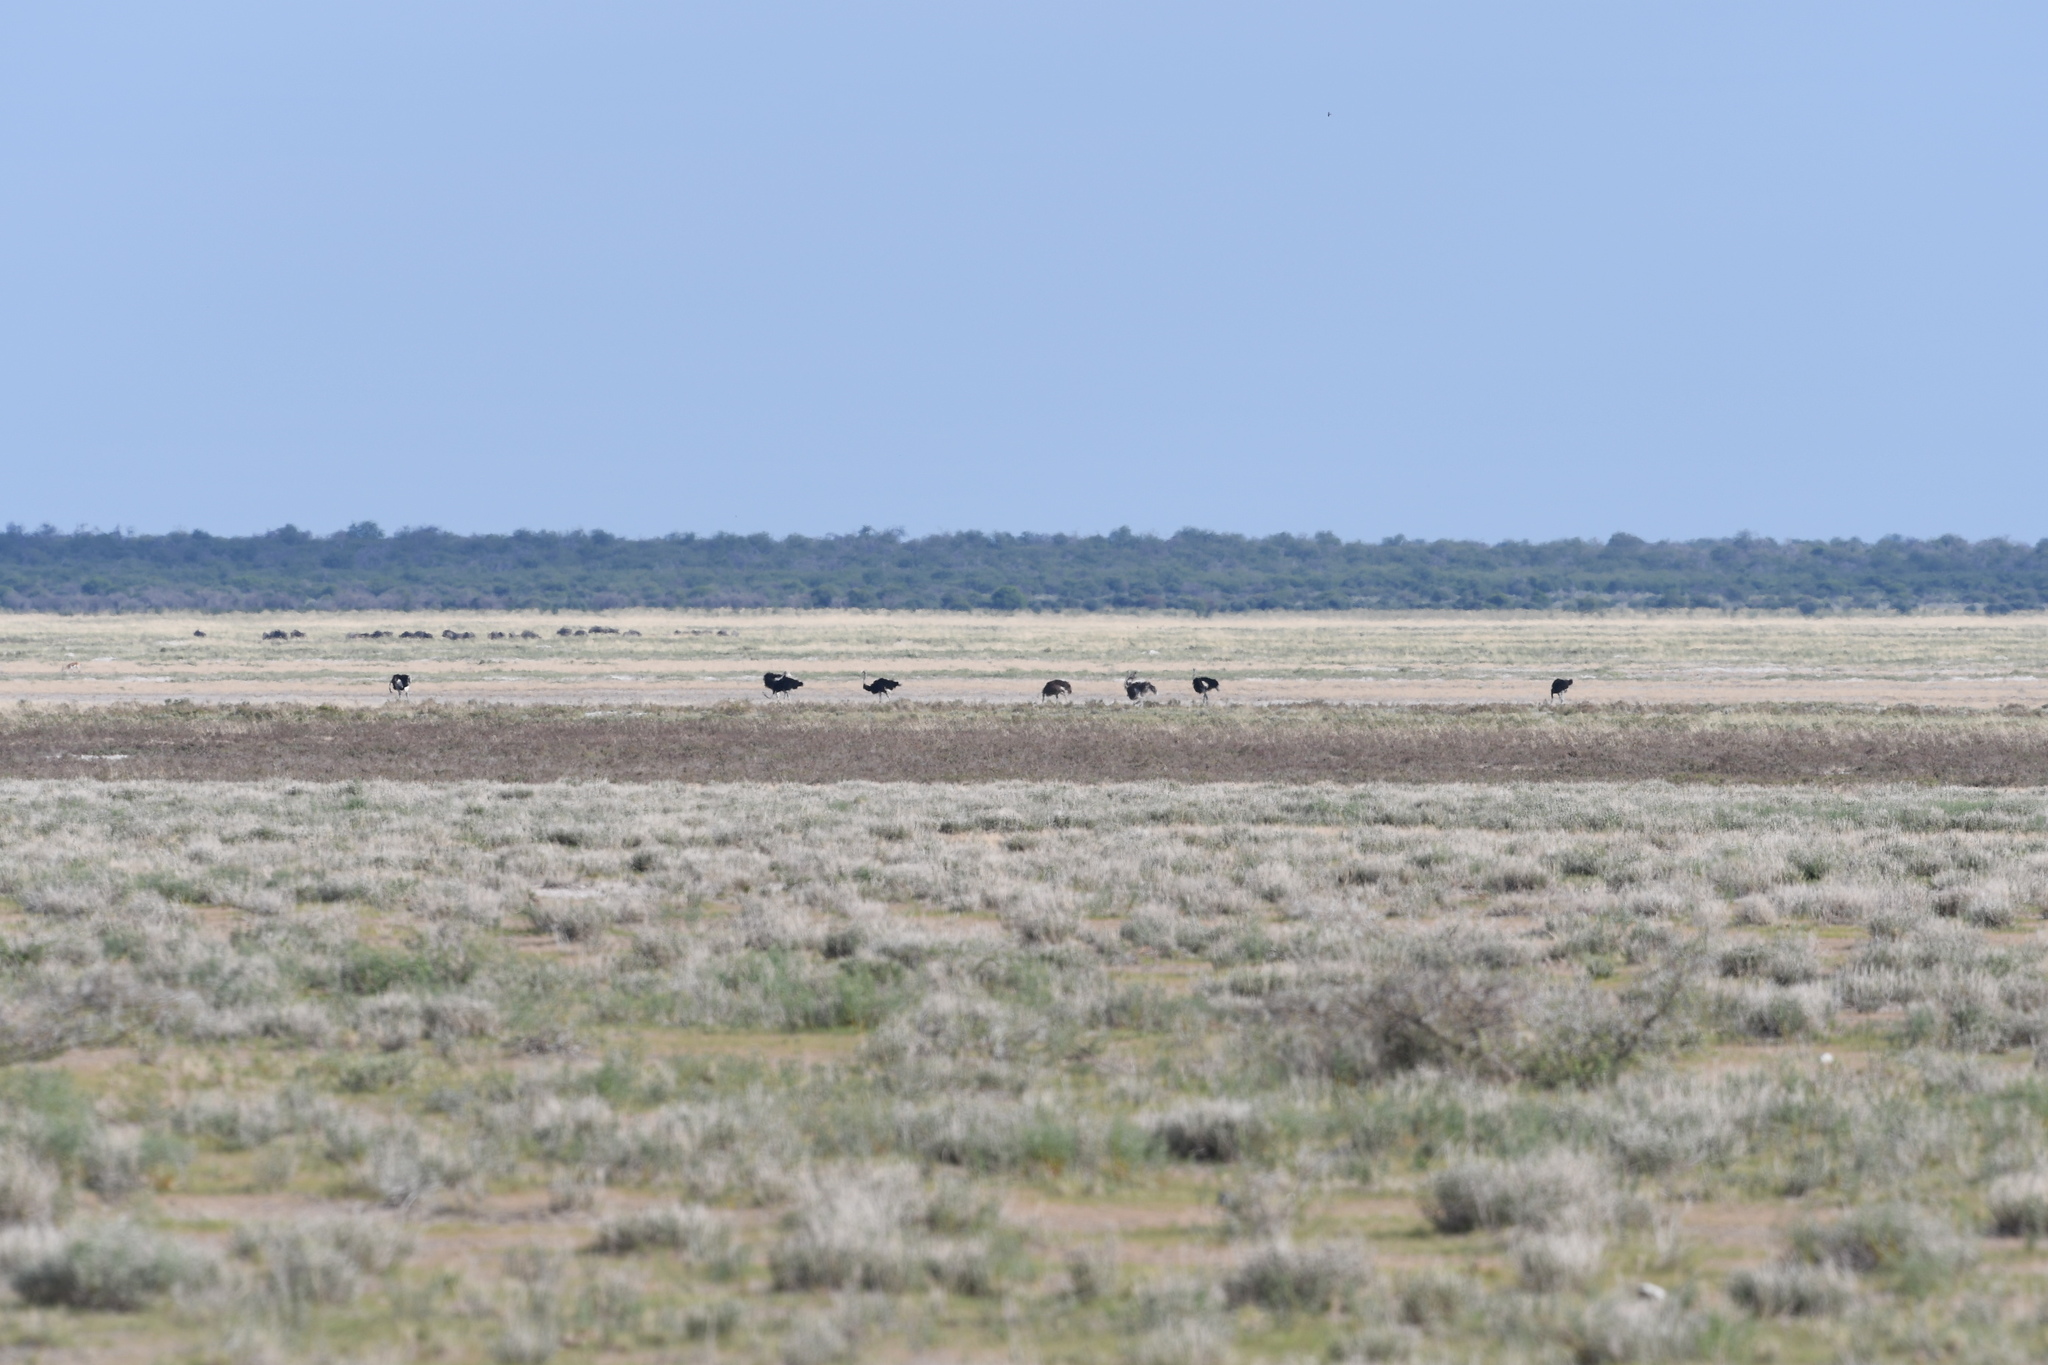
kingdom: Animalia
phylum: Chordata
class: Aves
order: Struthioniformes
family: Struthionidae
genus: Struthio
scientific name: Struthio camelus
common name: Common ostrich
